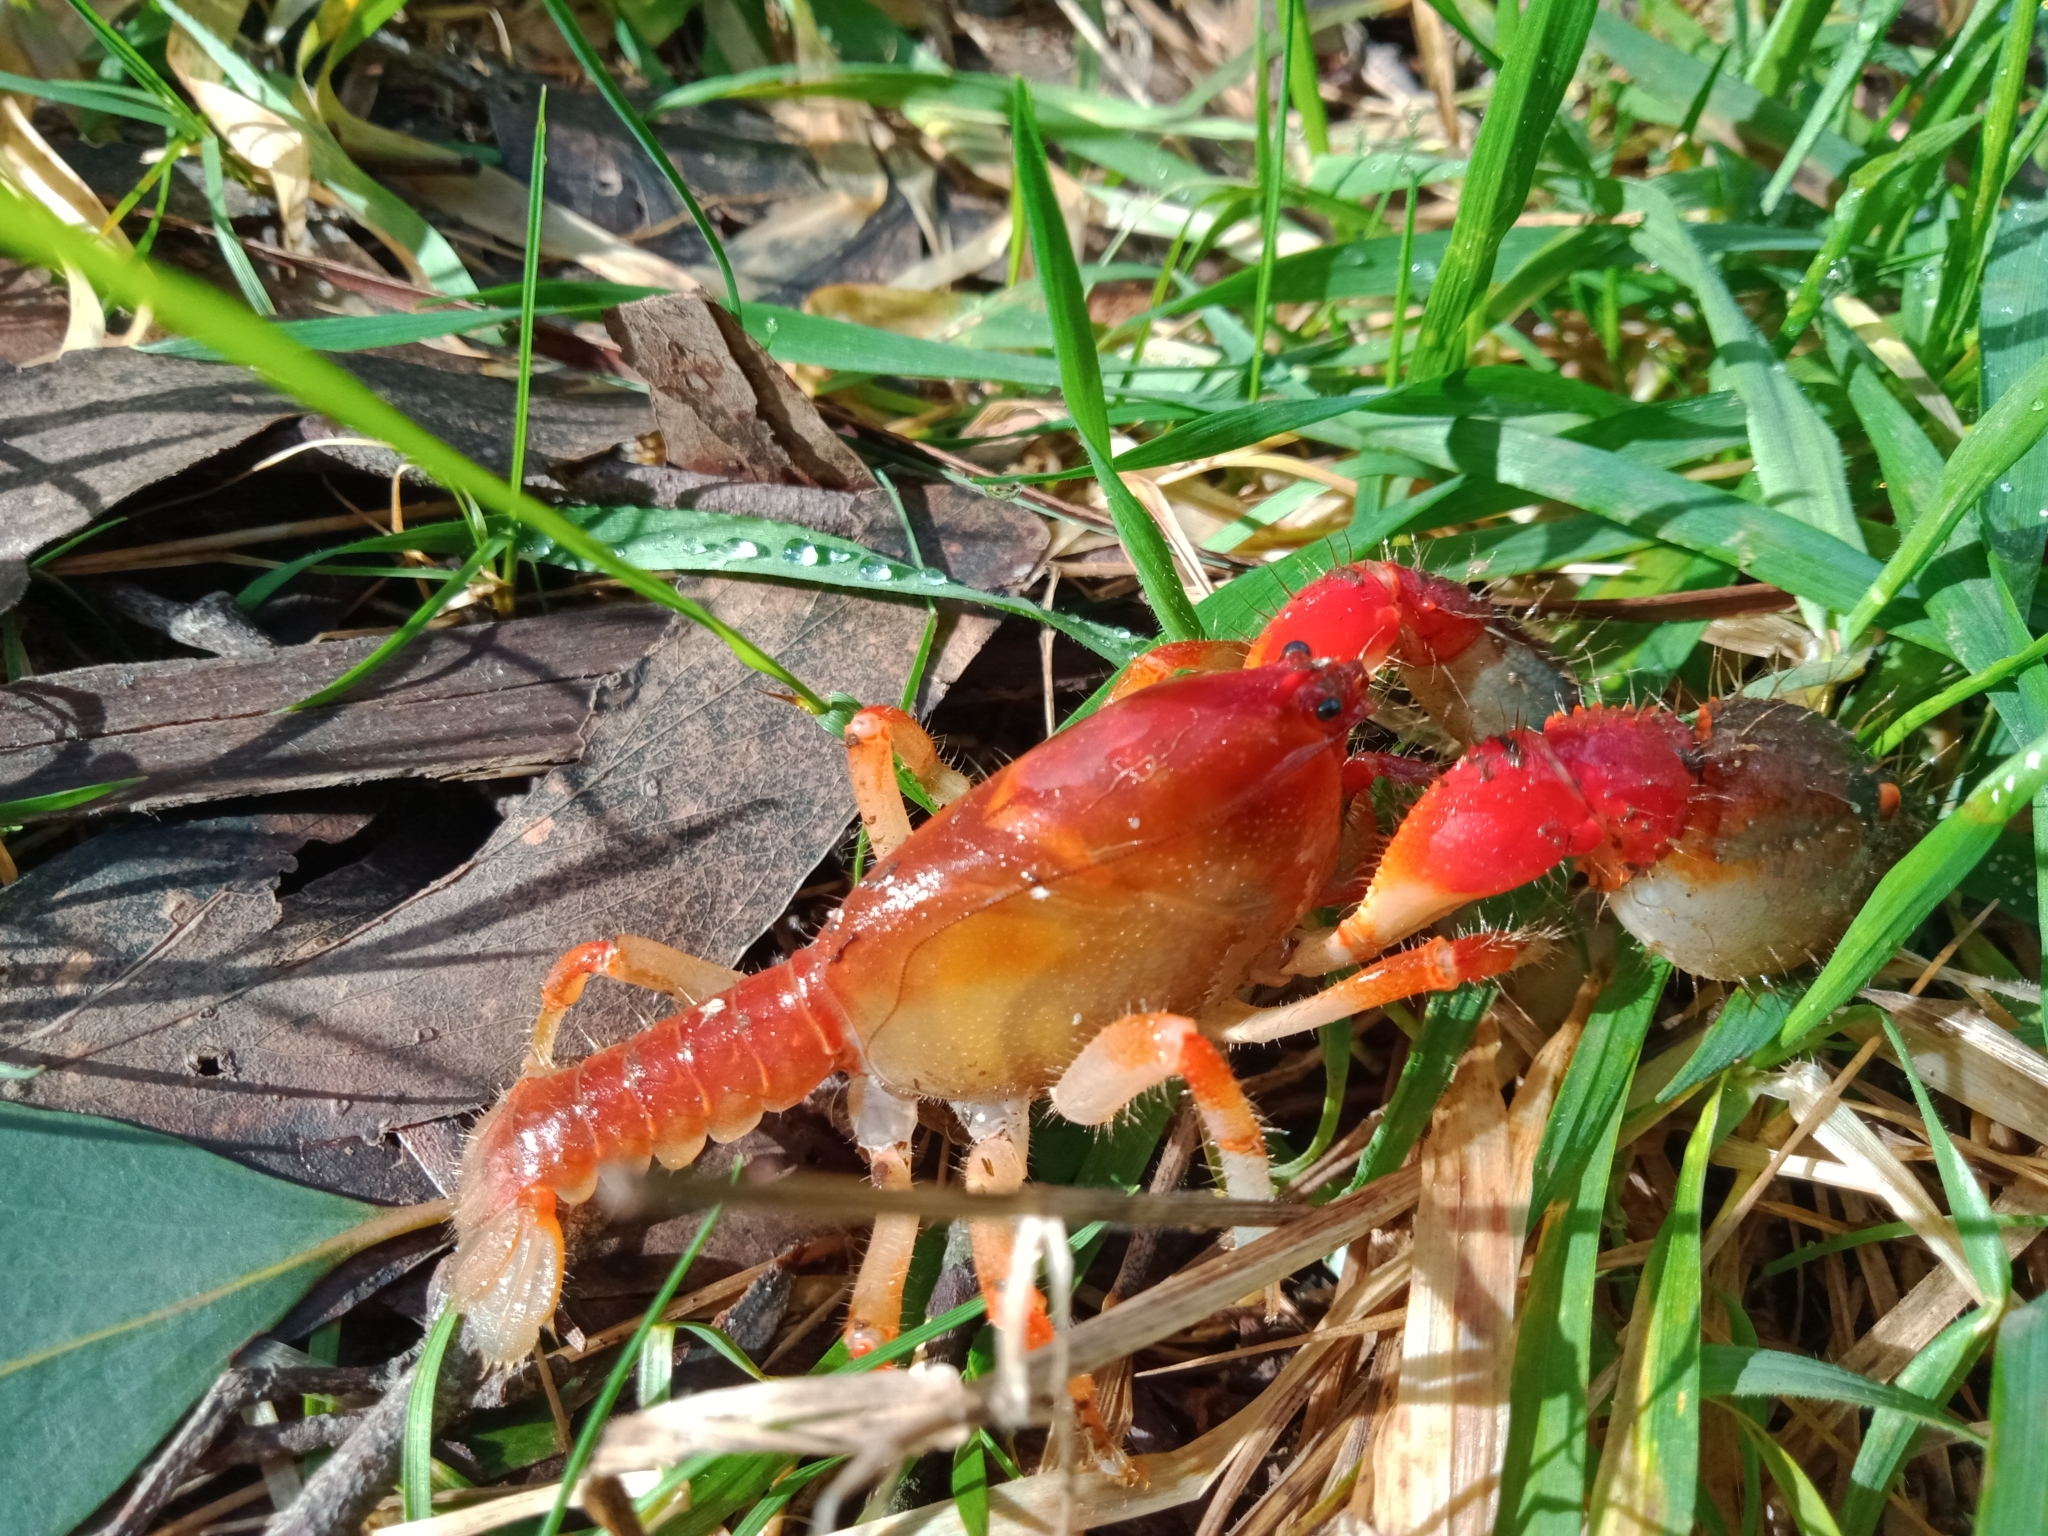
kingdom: Animalia
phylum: Arthropoda
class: Malacostraca
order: Decapoda
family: Parastacidae
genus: Engaeus
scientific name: Engaeus affinis
